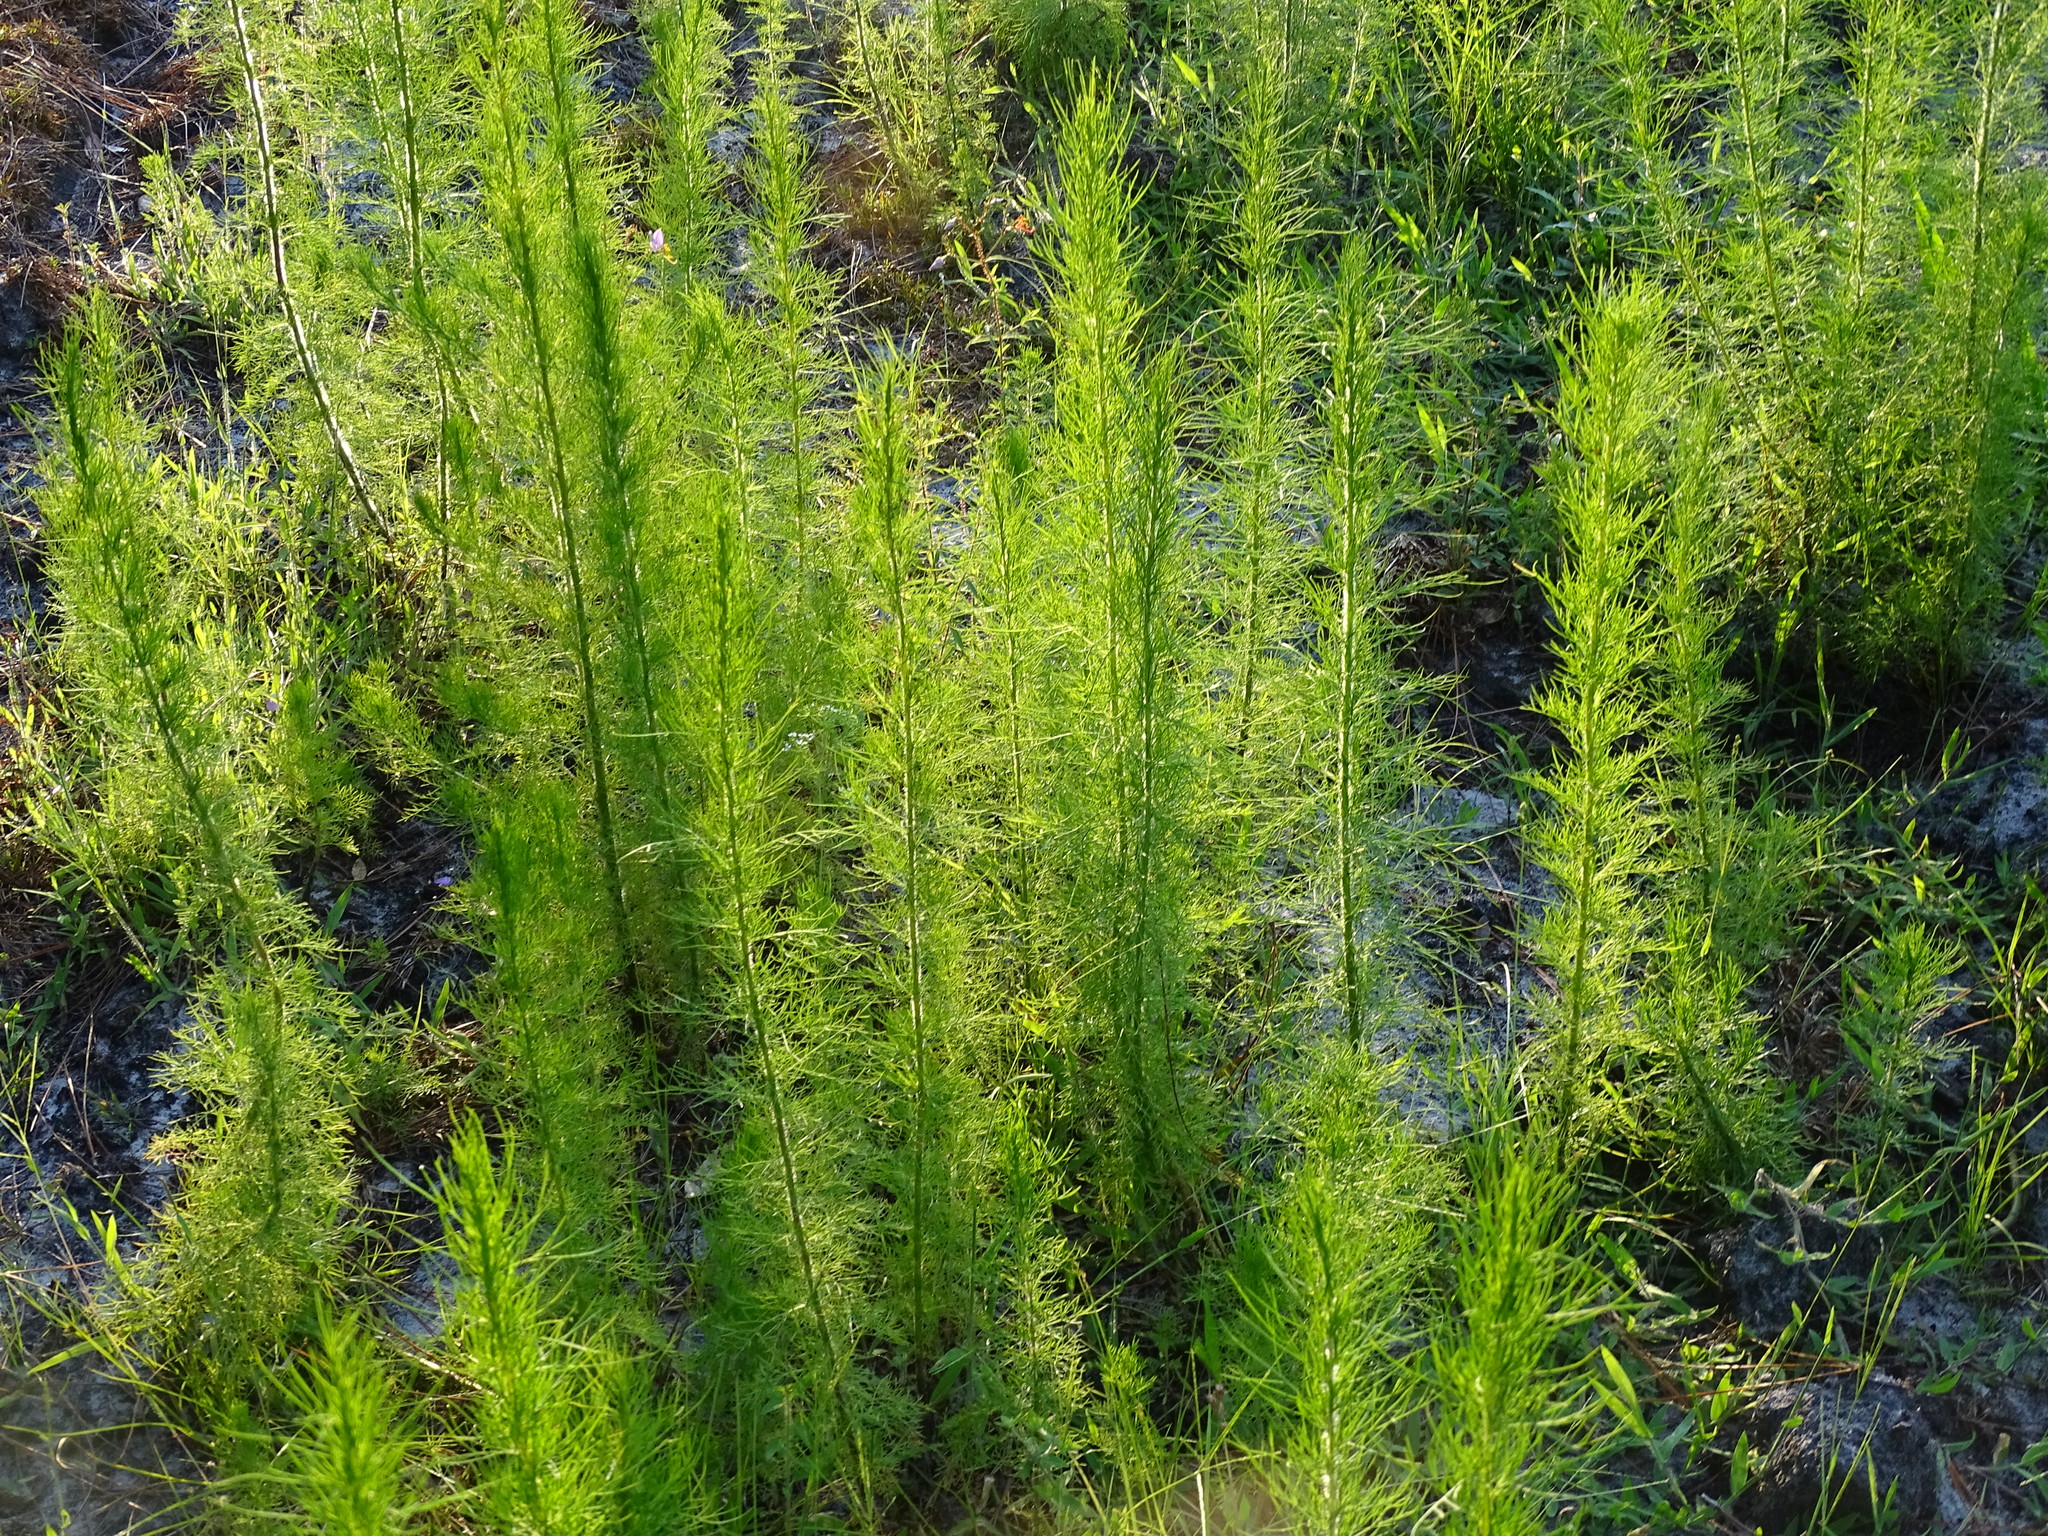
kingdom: Plantae
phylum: Tracheophyta
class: Magnoliopsida
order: Asterales
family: Asteraceae
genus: Eupatorium
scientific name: Eupatorium capillifolium
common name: Dog-fennel
